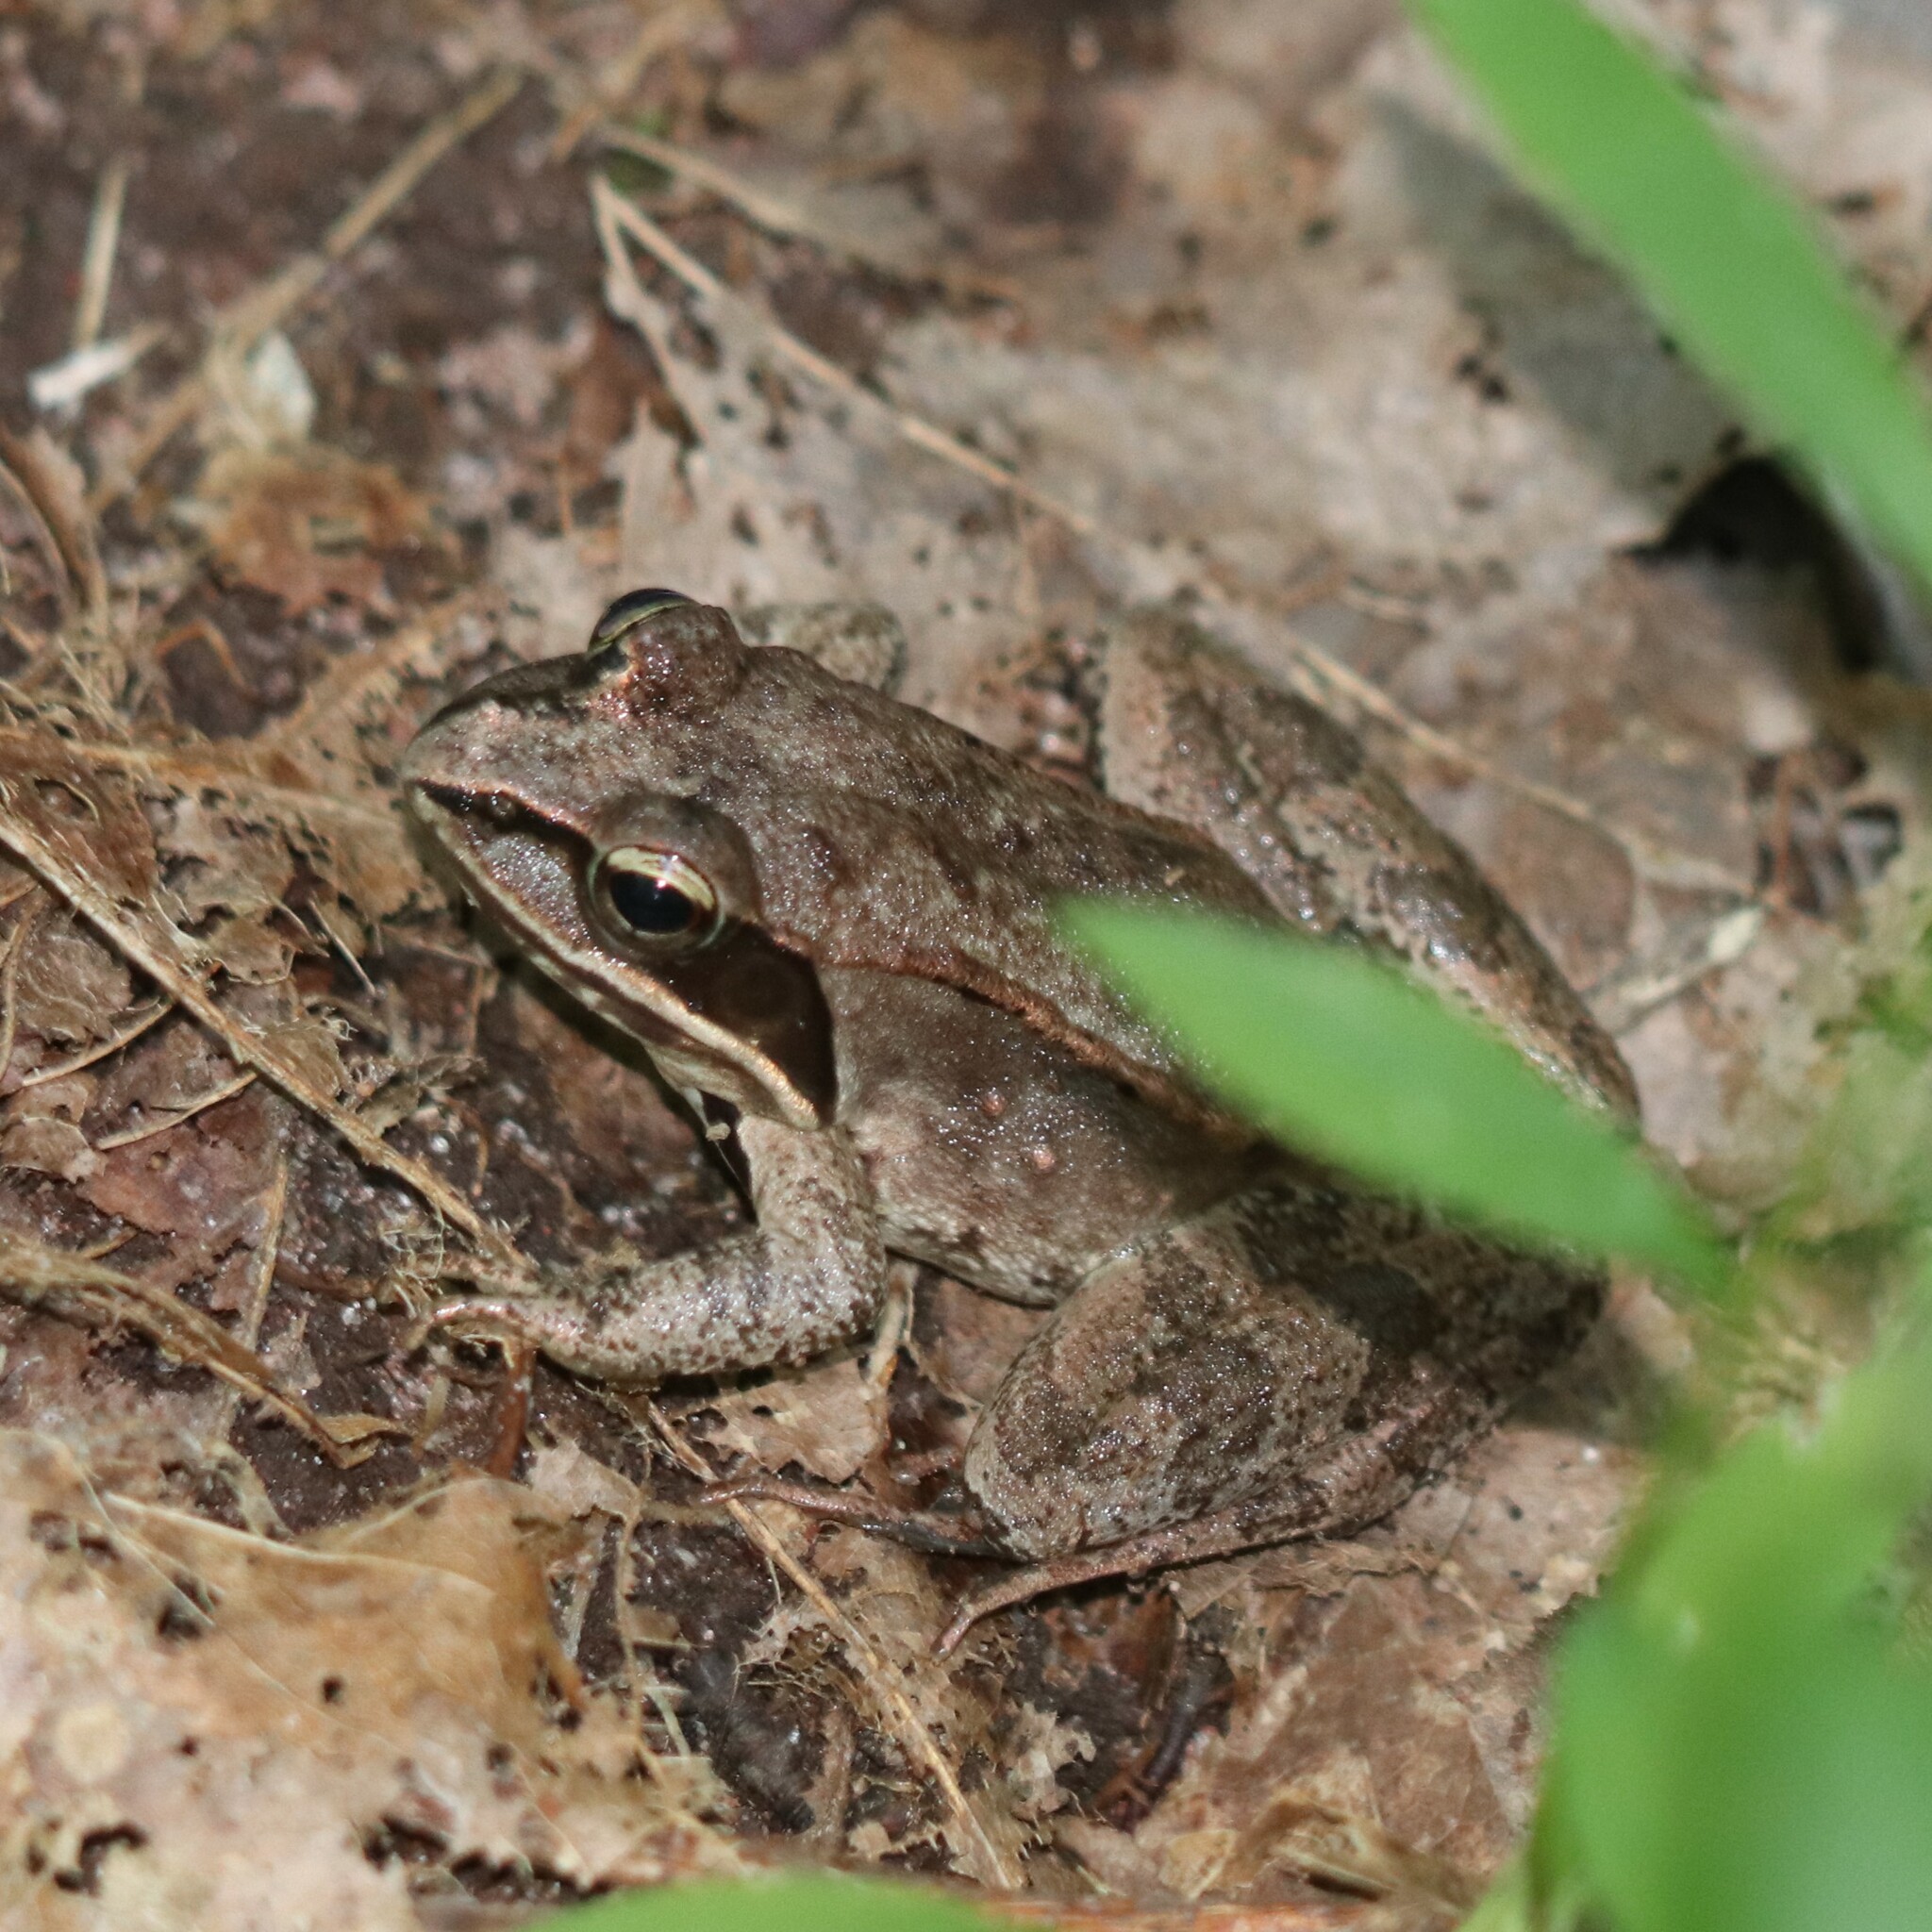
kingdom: Animalia
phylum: Chordata
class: Amphibia
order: Anura
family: Ranidae
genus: Lithobates
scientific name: Lithobates sylvaticus
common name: Wood frog
